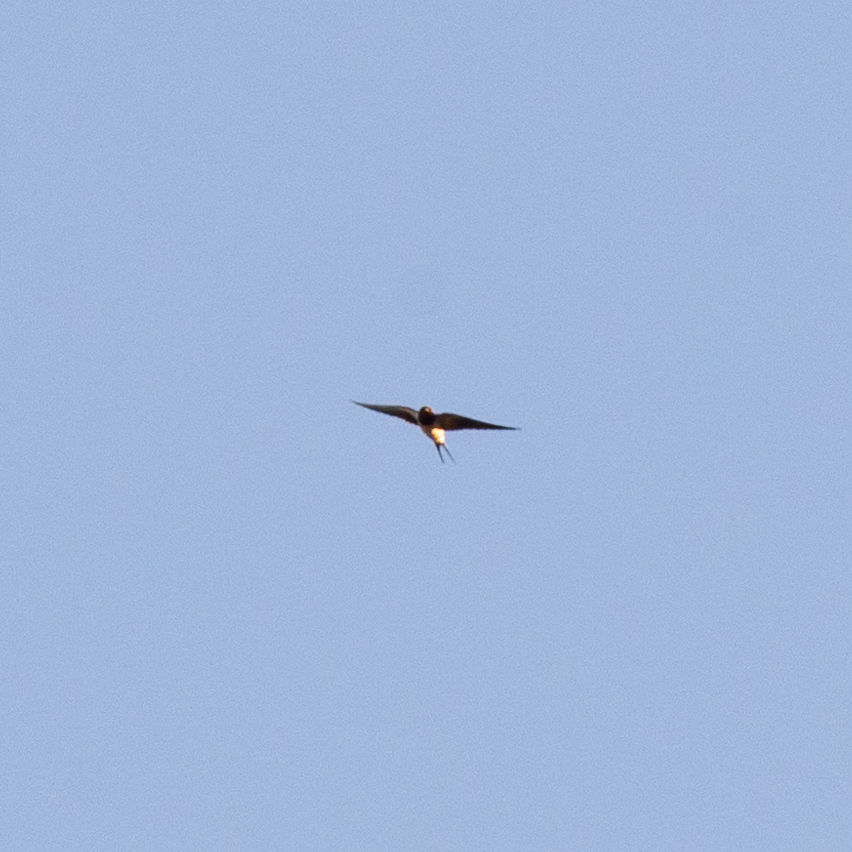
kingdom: Animalia
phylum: Chordata
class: Aves
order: Passeriformes
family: Hirundinidae
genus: Hirundo
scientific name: Hirundo rustica
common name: Barn swallow
